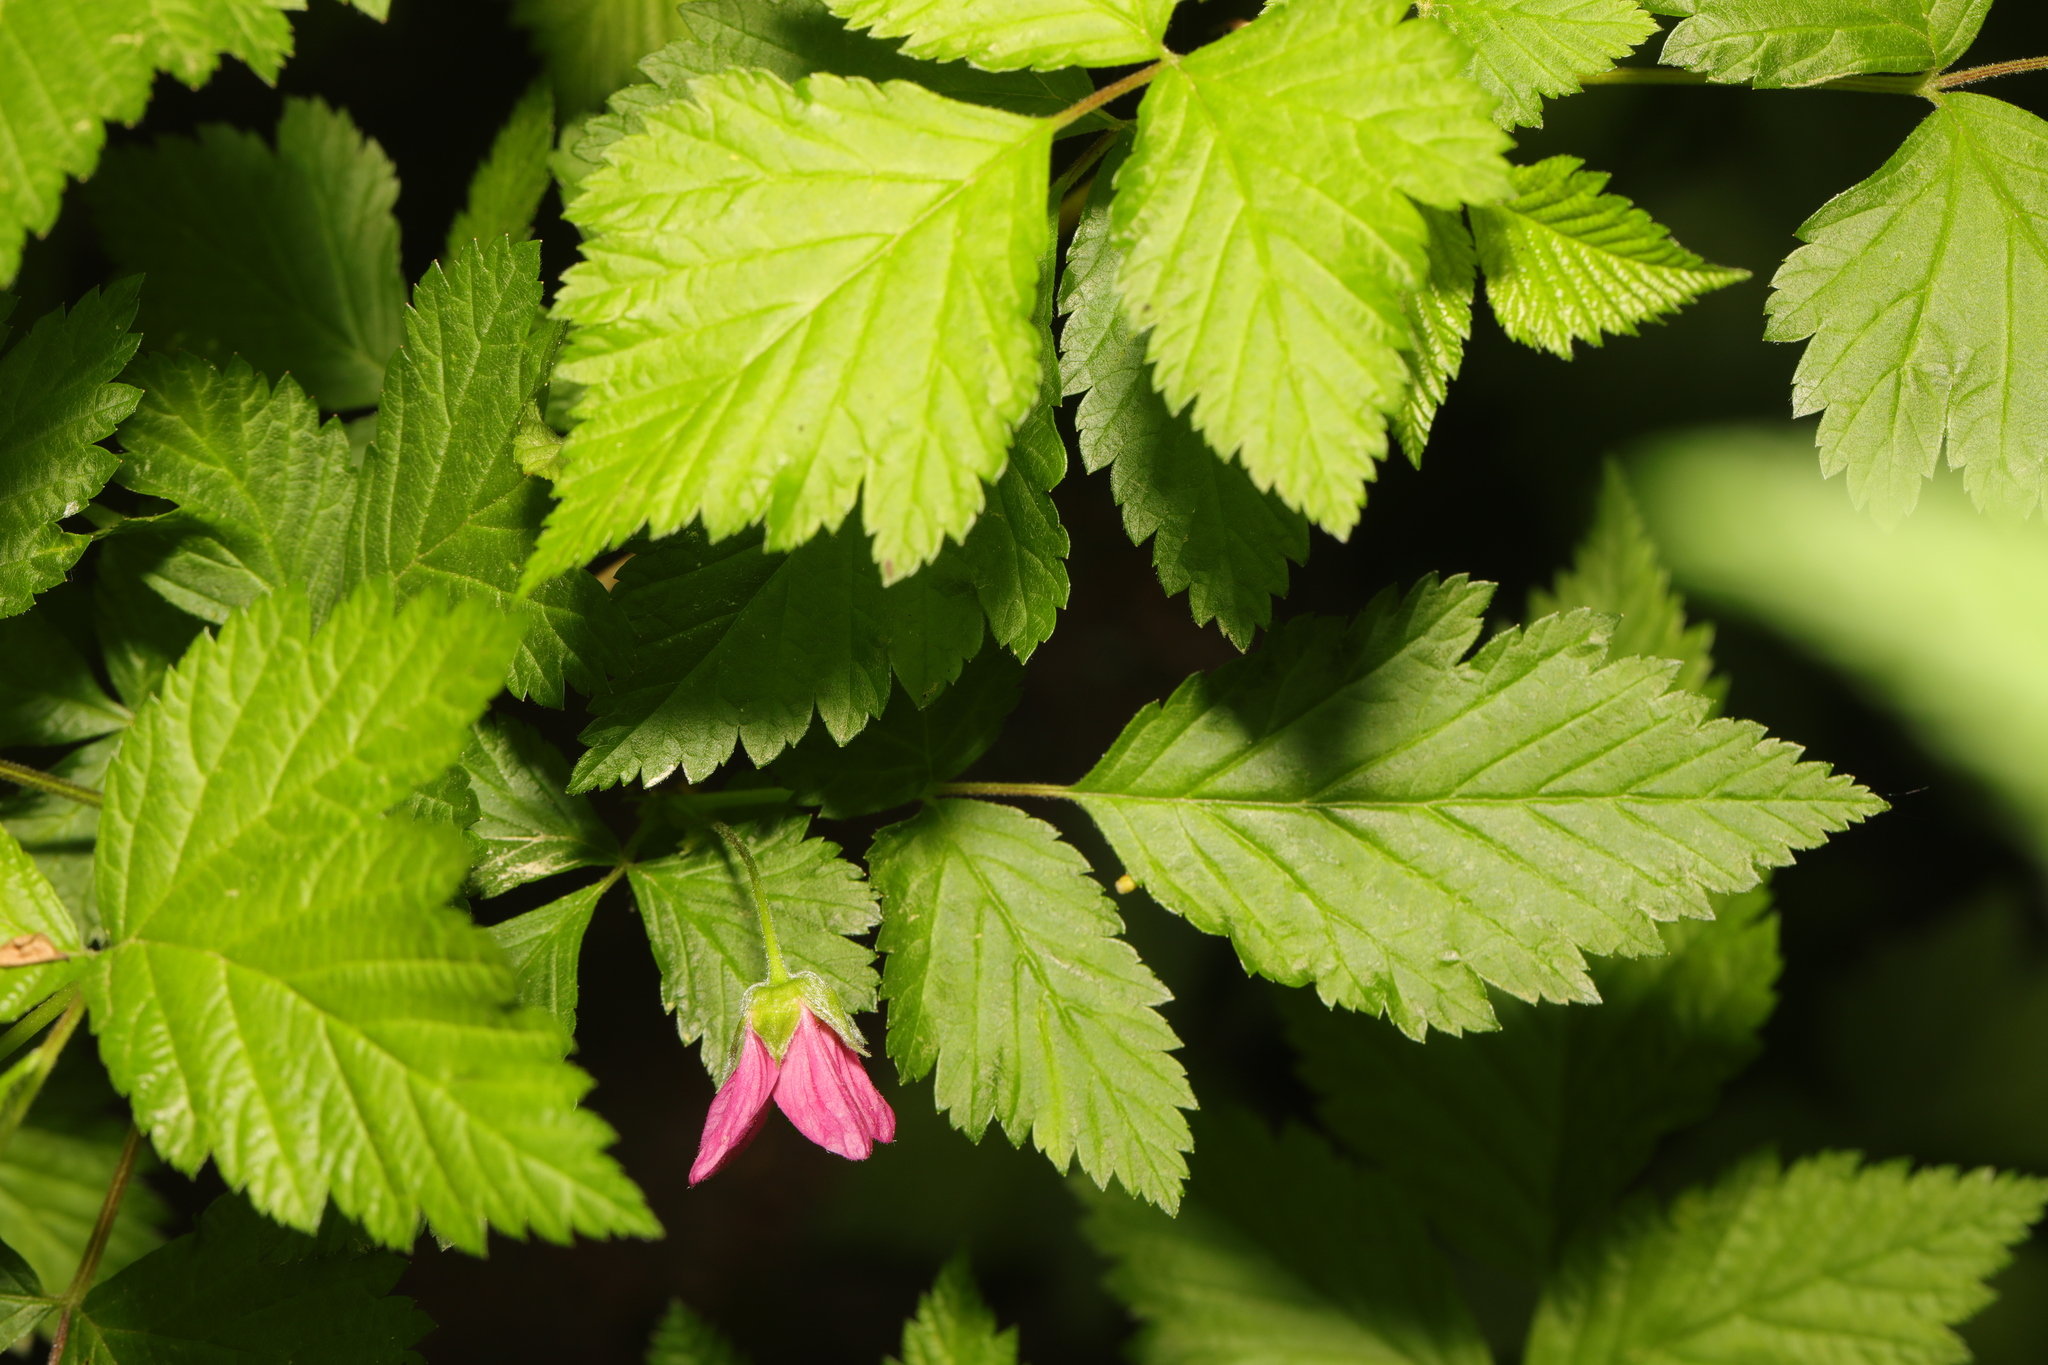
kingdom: Plantae
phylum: Tracheophyta
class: Magnoliopsida
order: Rosales
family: Rosaceae
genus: Rubus
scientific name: Rubus spectabilis
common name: Salmonberry
